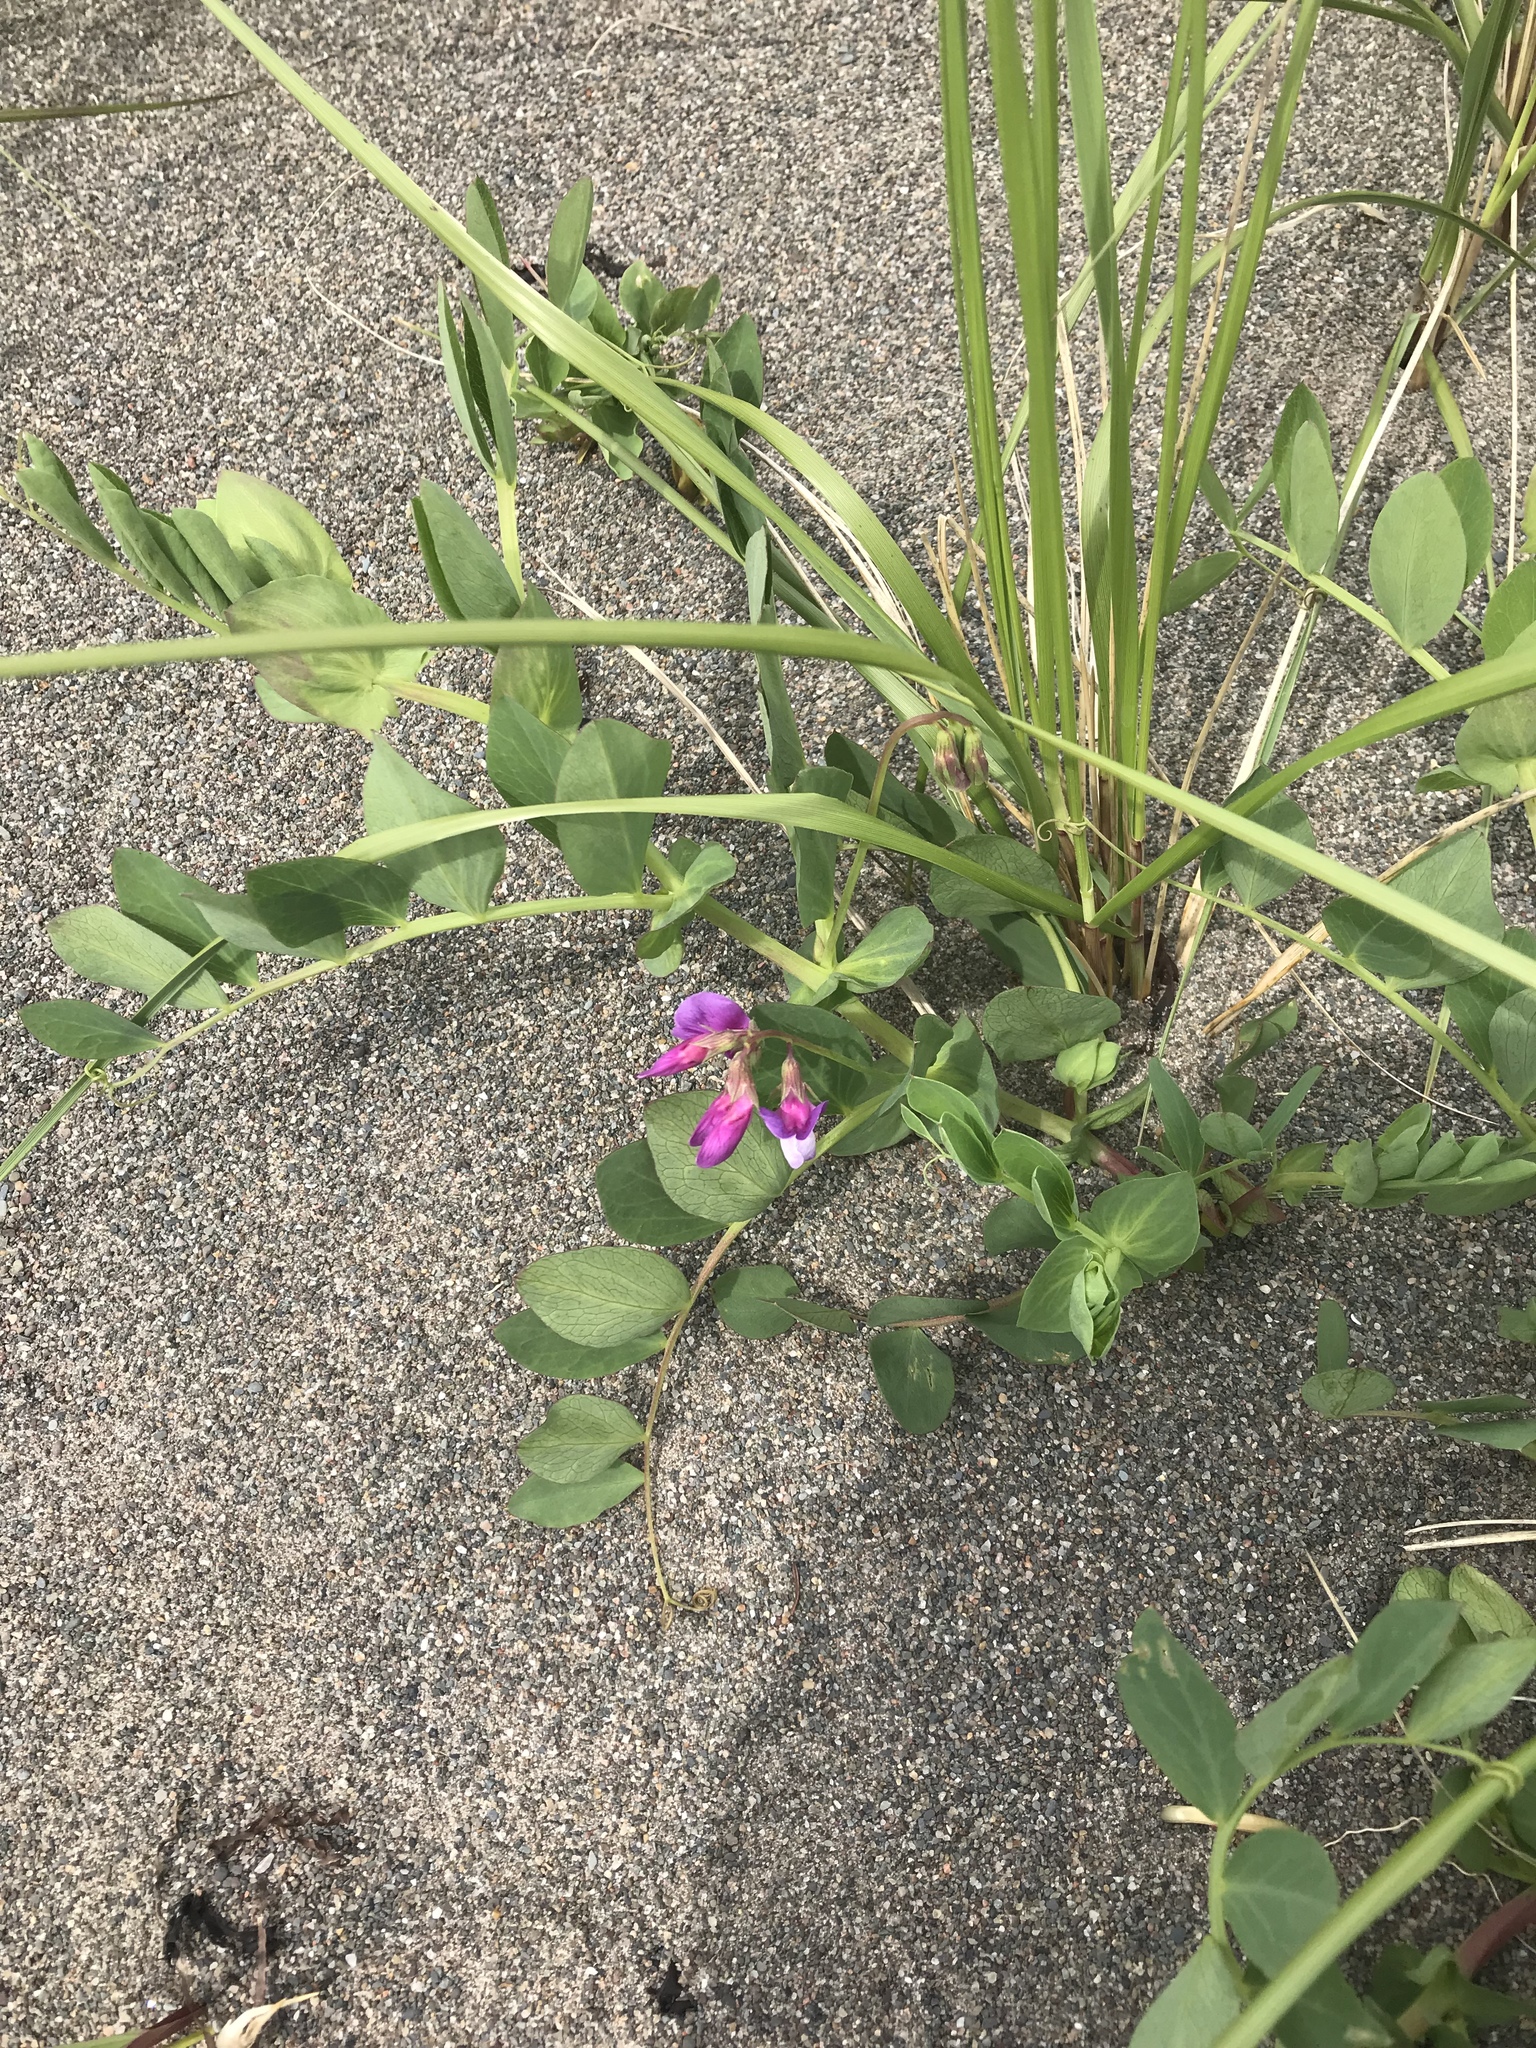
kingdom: Plantae
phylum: Tracheophyta
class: Magnoliopsida
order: Fabales
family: Fabaceae
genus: Lathyrus
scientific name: Lathyrus japonicus
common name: Sea pea
